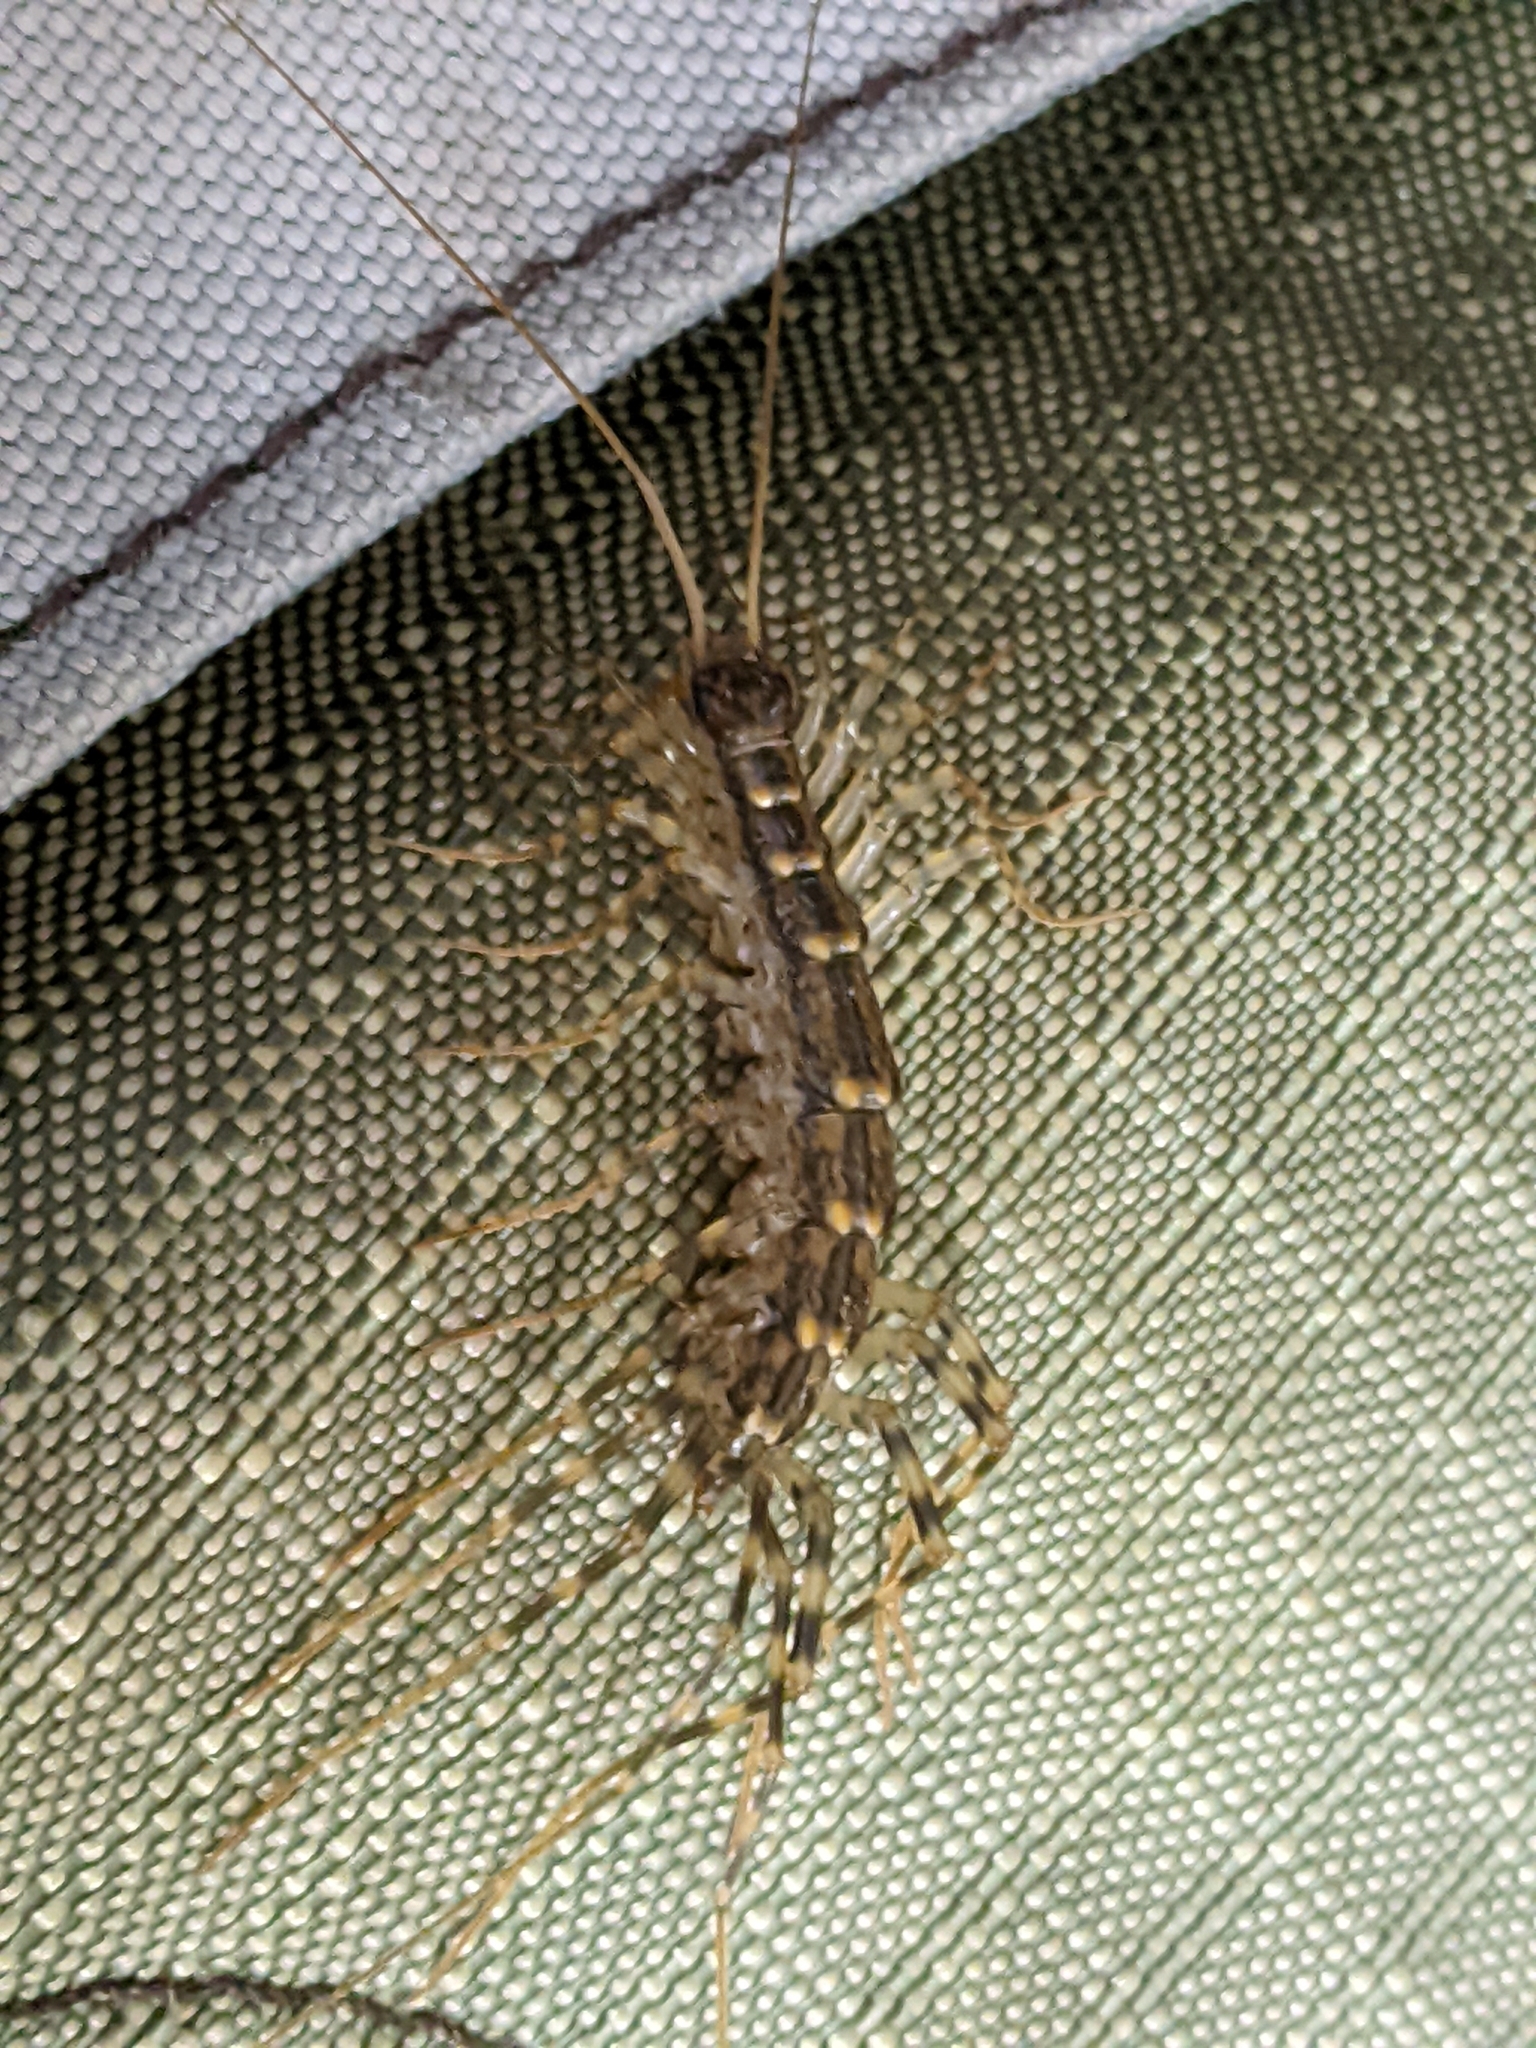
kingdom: Animalia
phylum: Arthropoda
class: Chilopoda
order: Scutigeromorpha
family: Scutigeridae
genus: Scutigera
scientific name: Scutigera coleoptrata
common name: House centipede
